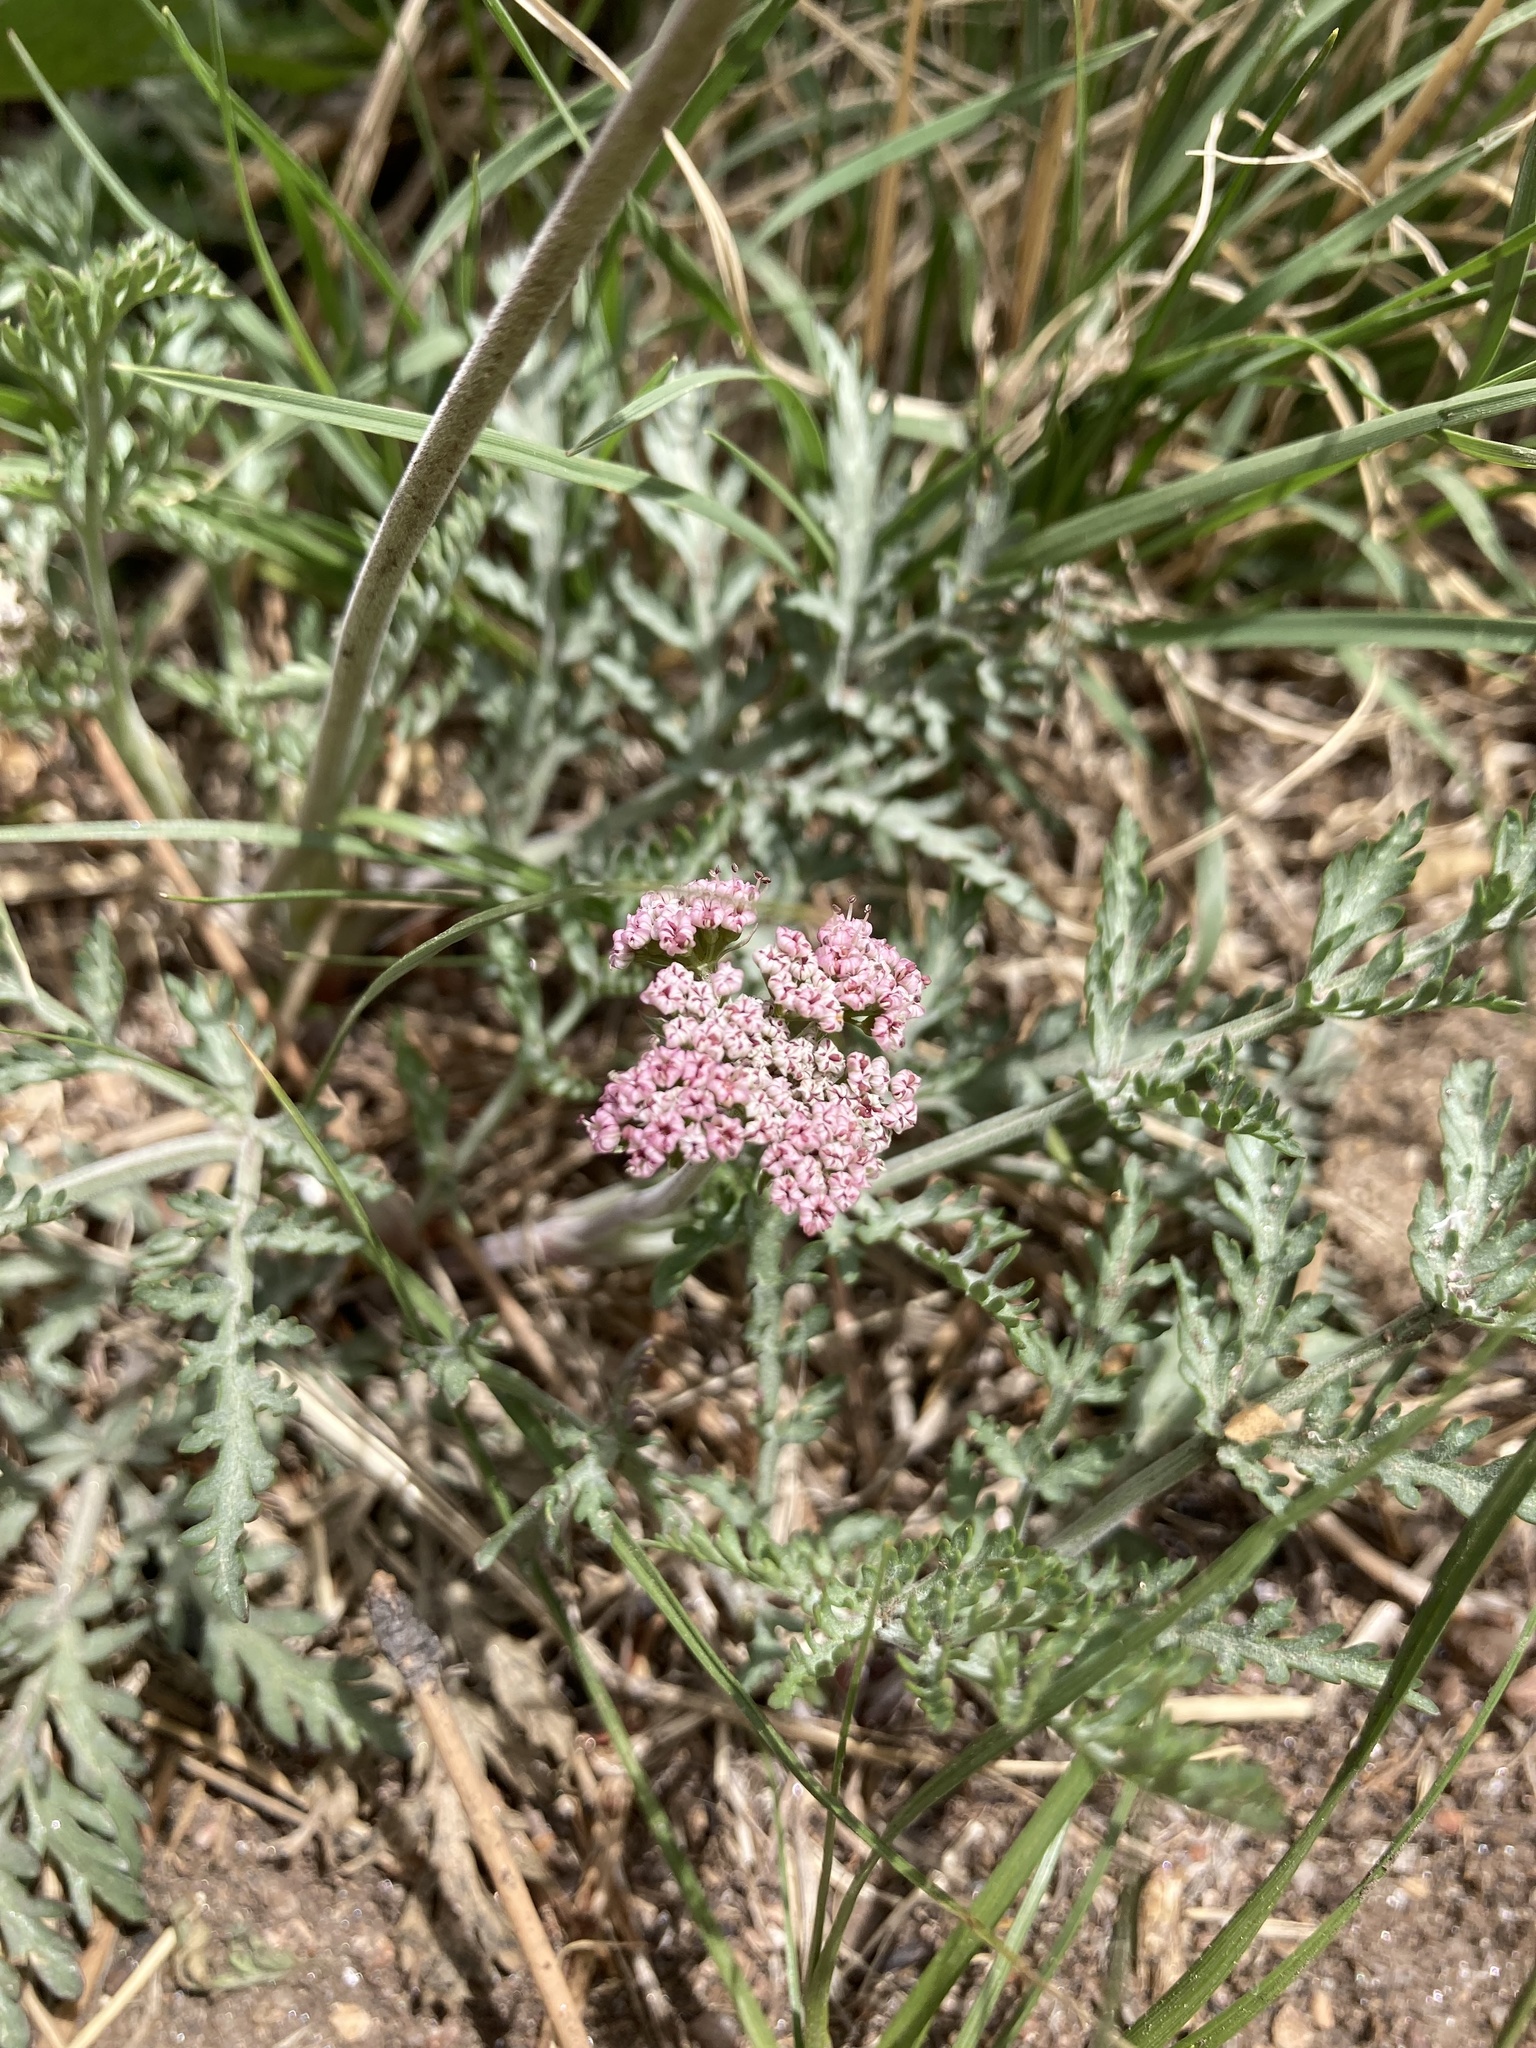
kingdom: Plantae
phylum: Tracheophyta
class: Magnoliopsida
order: Apiales
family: Apiaceae
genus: Lomatium
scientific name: Lomatium orientale
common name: Eastern cous
